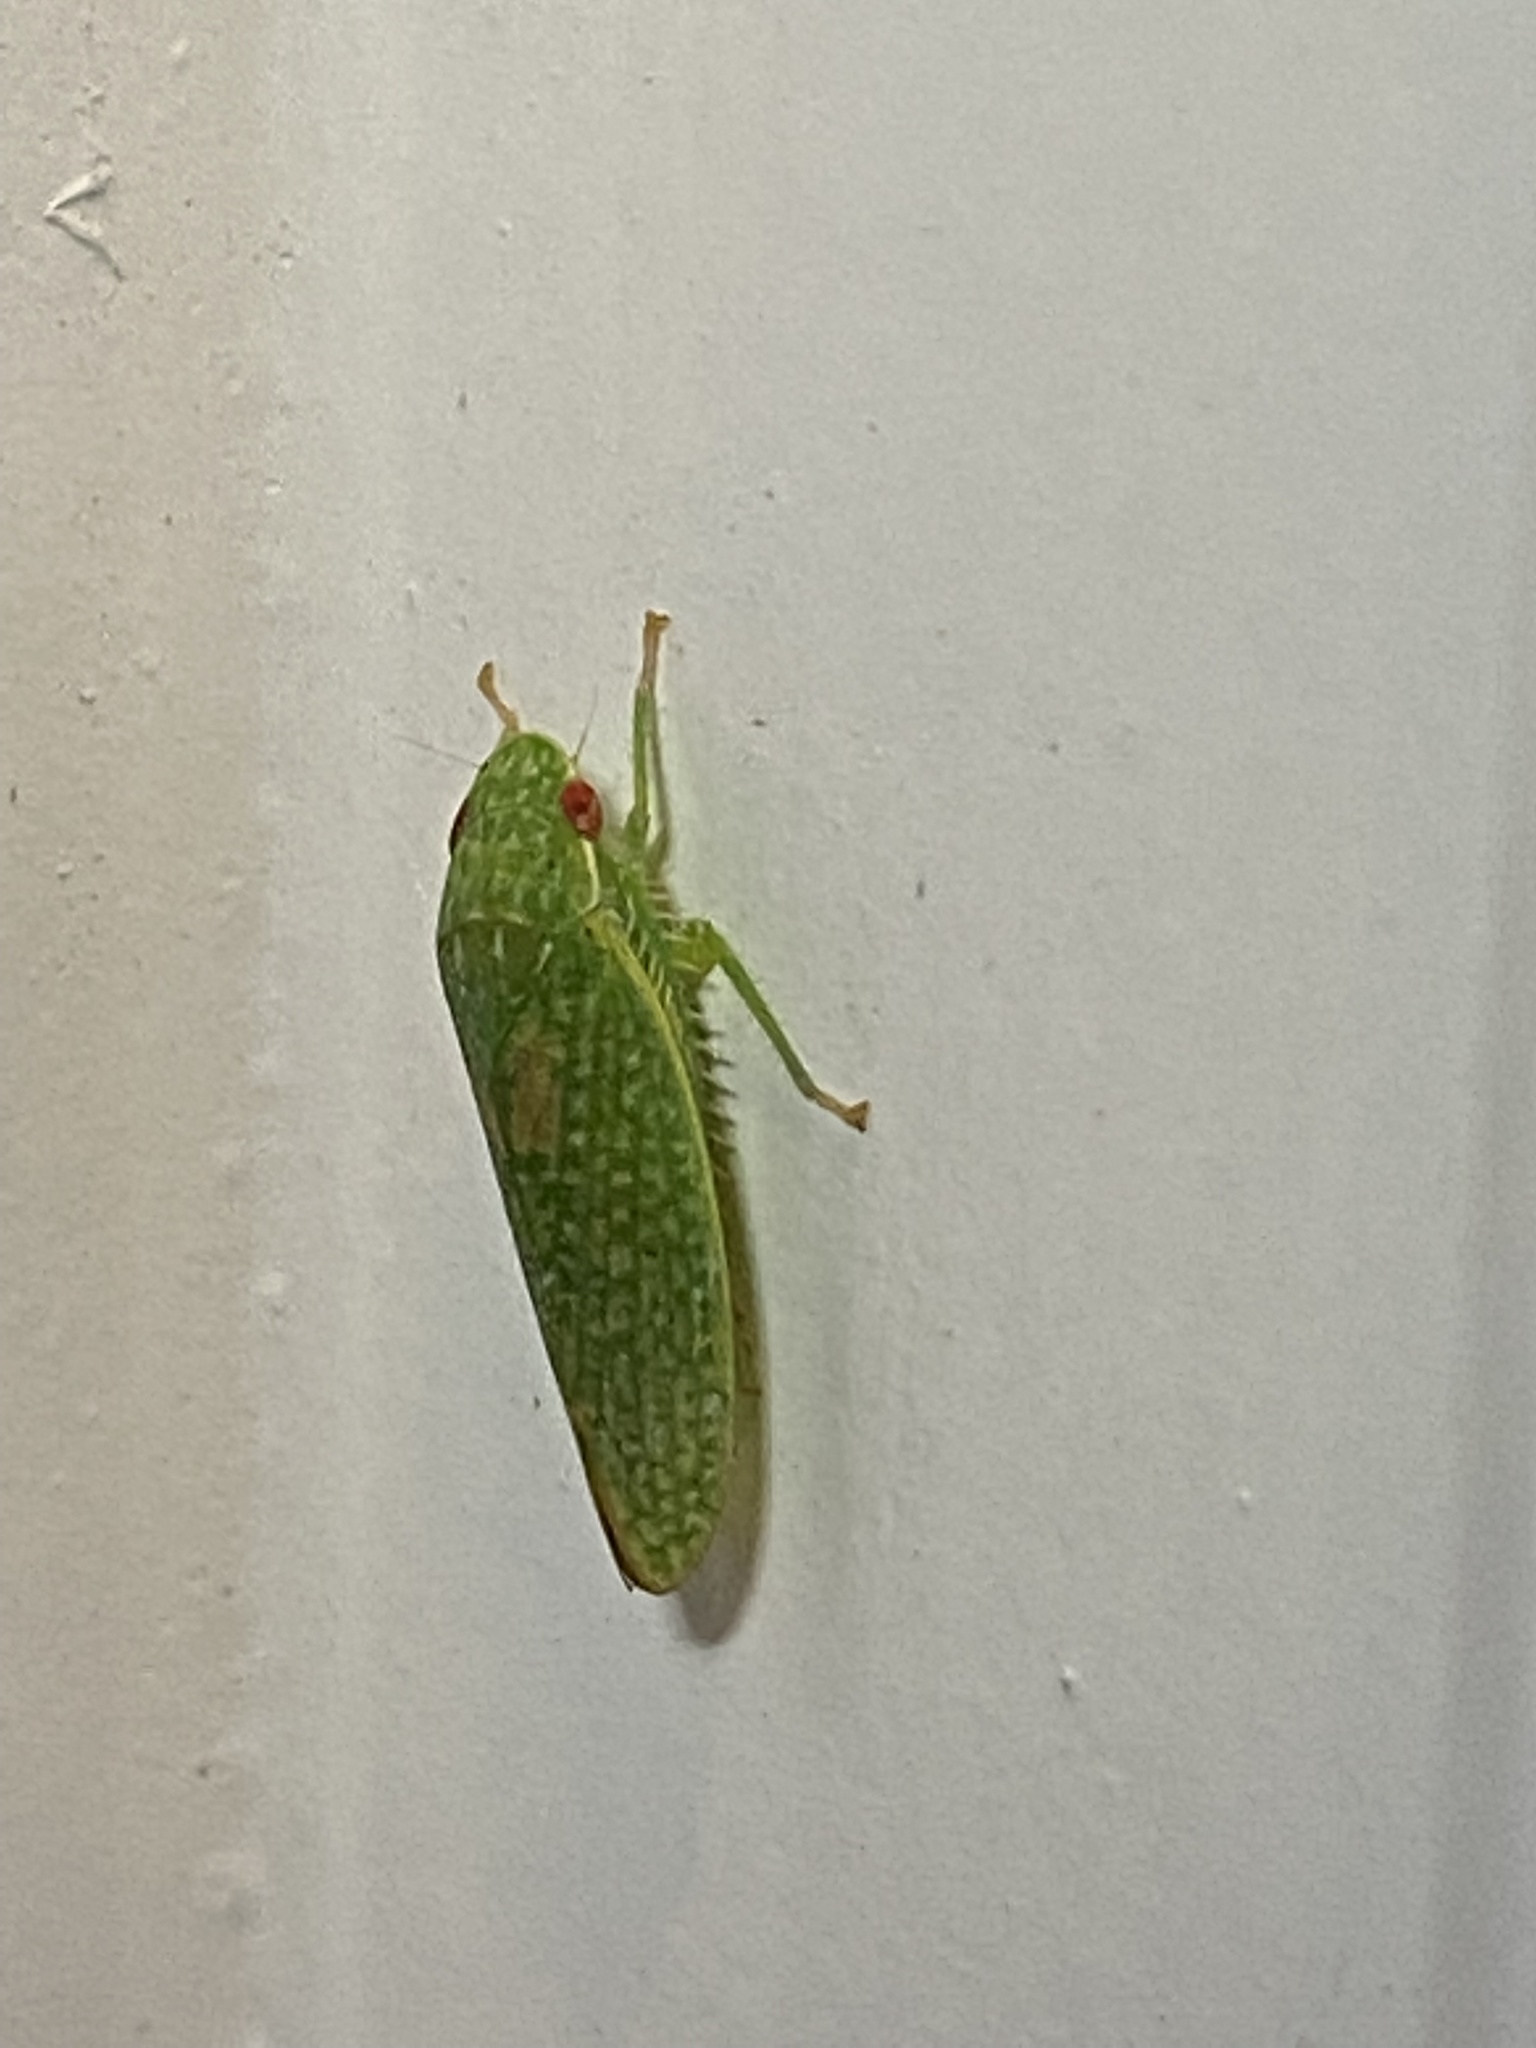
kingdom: Animalia
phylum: Arthropoda
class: Insecta
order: Hemiptera
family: Cicadellidae
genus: Rugosana
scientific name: Rugosana querci
